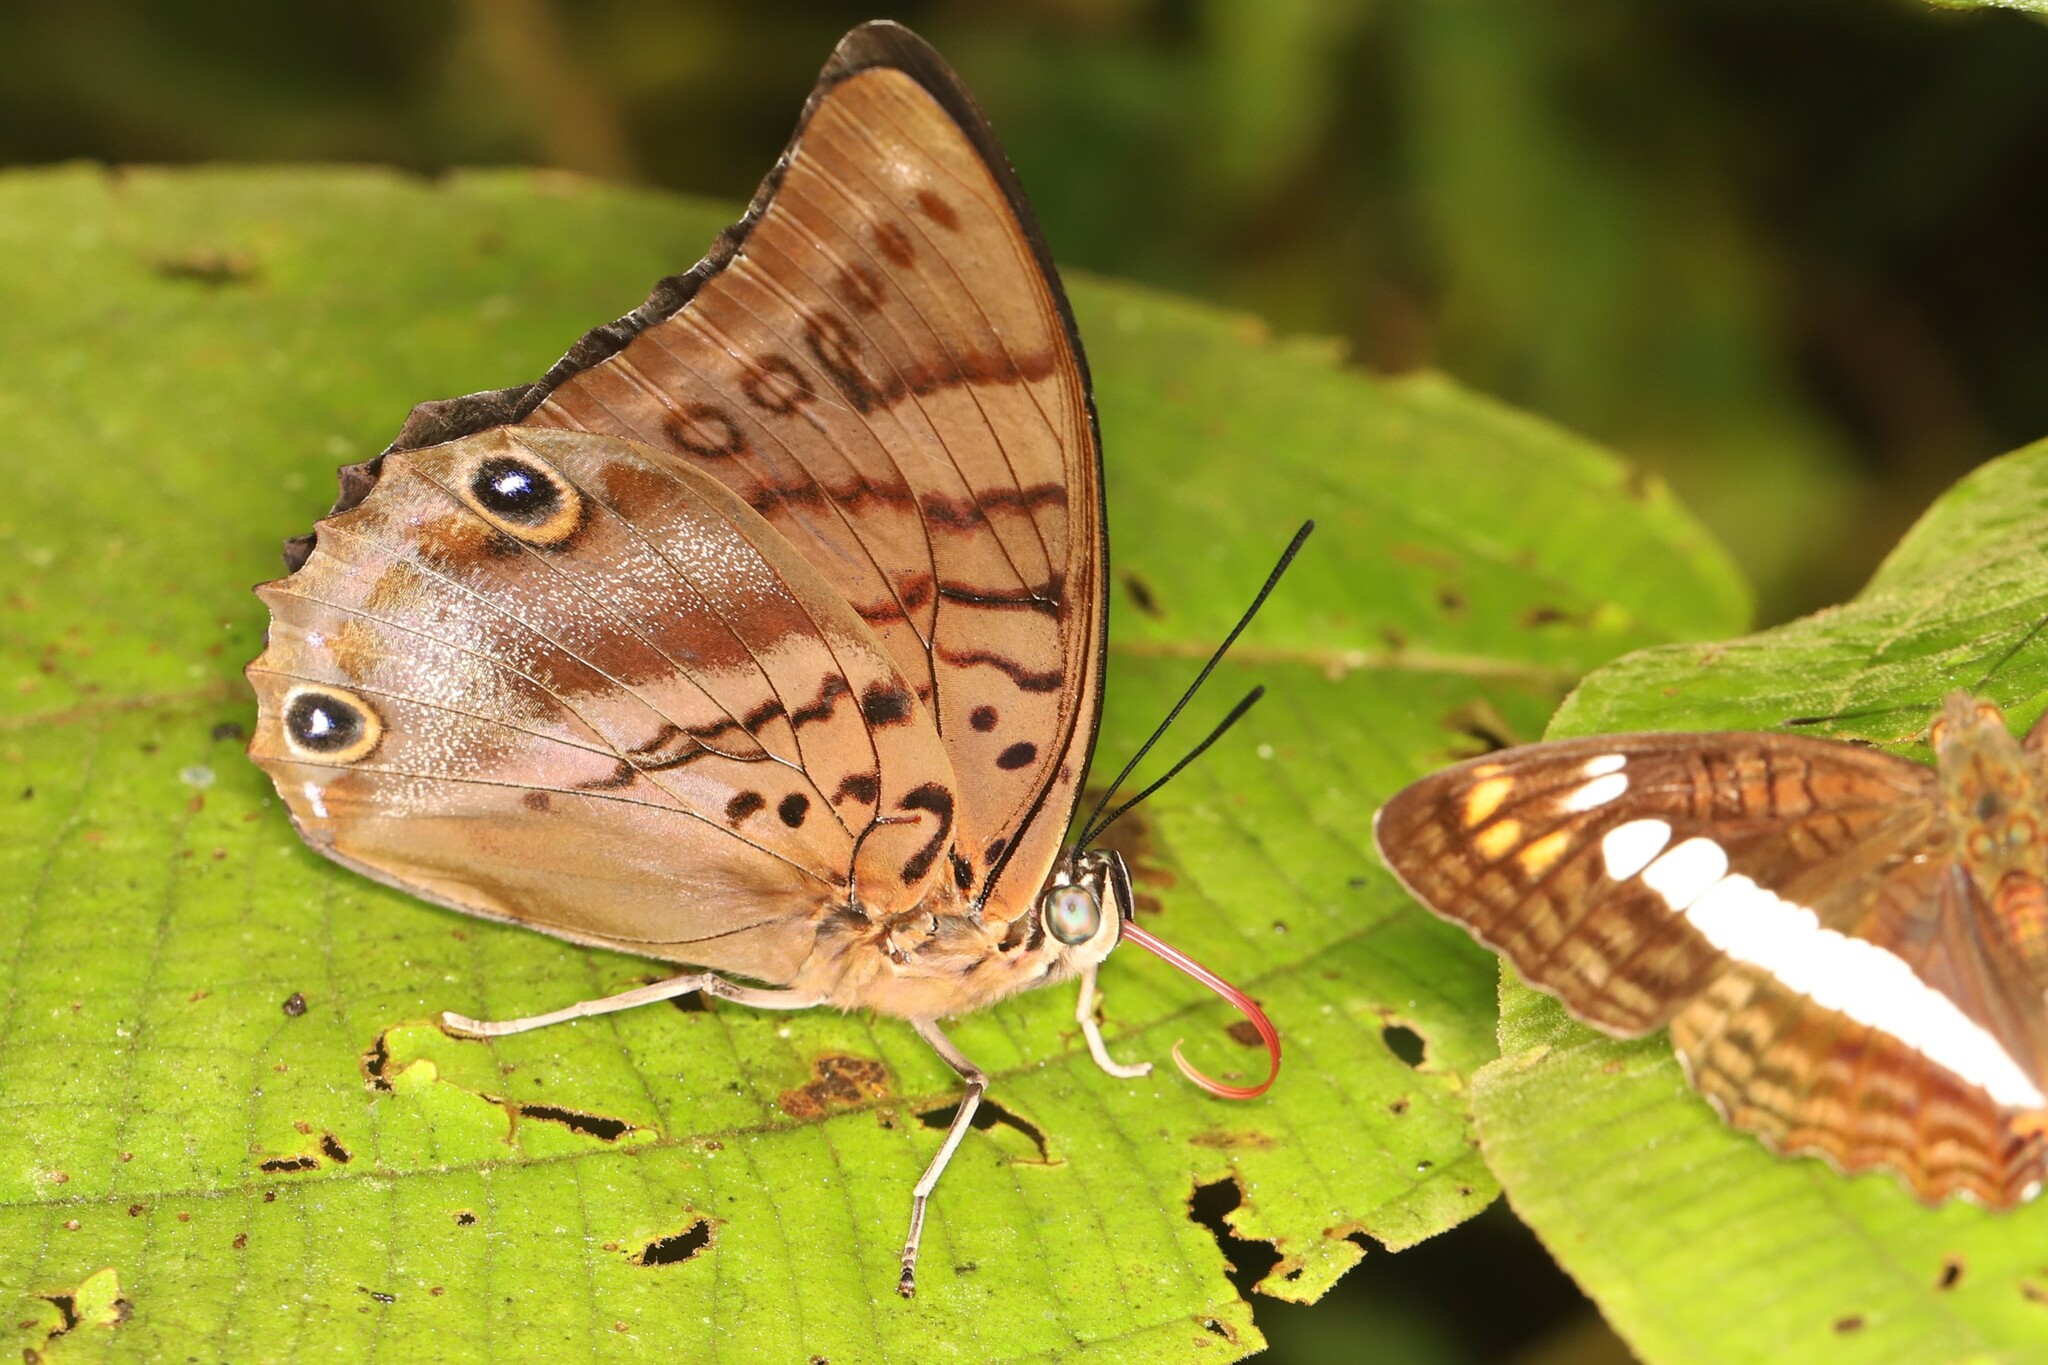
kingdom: Animalia
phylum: Arthropoda
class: Insecta
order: Lepidoptera
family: Nymphalidae
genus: Prepona
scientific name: Prepona werneri
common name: Werner's prepona
